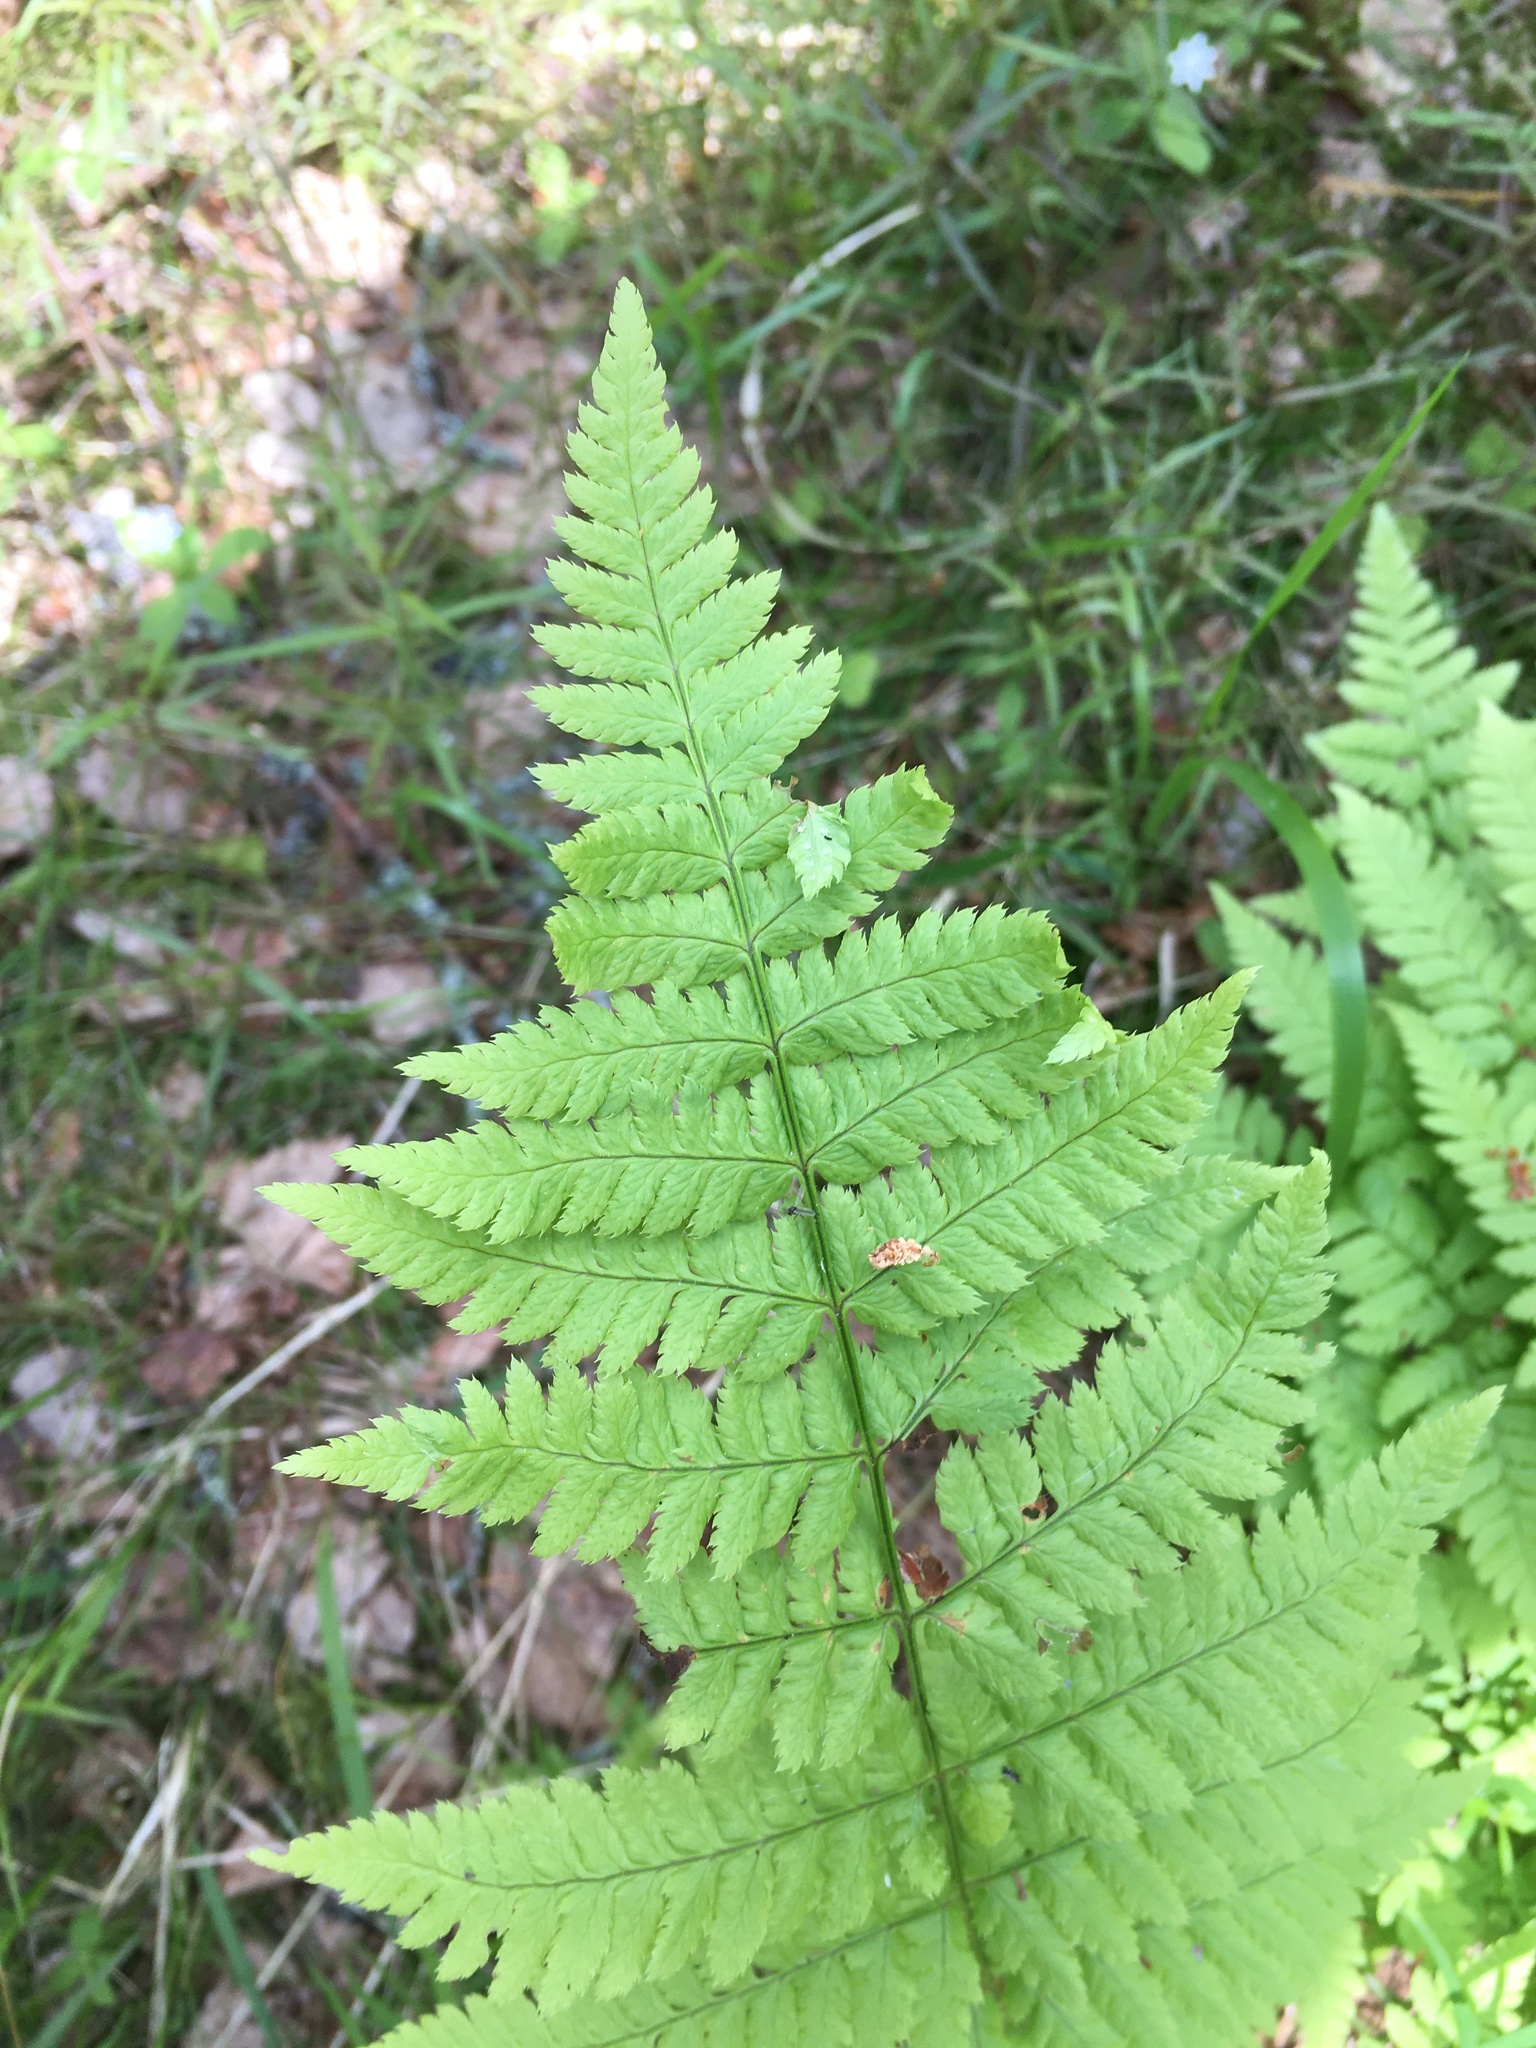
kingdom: Plantae
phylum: Tracheophyta
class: Polypodiopsida
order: Polypodiales
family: Dryopteridaceae
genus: Dryopteris
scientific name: Dryopteris carthusiana
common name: Narrow buckler-fern
